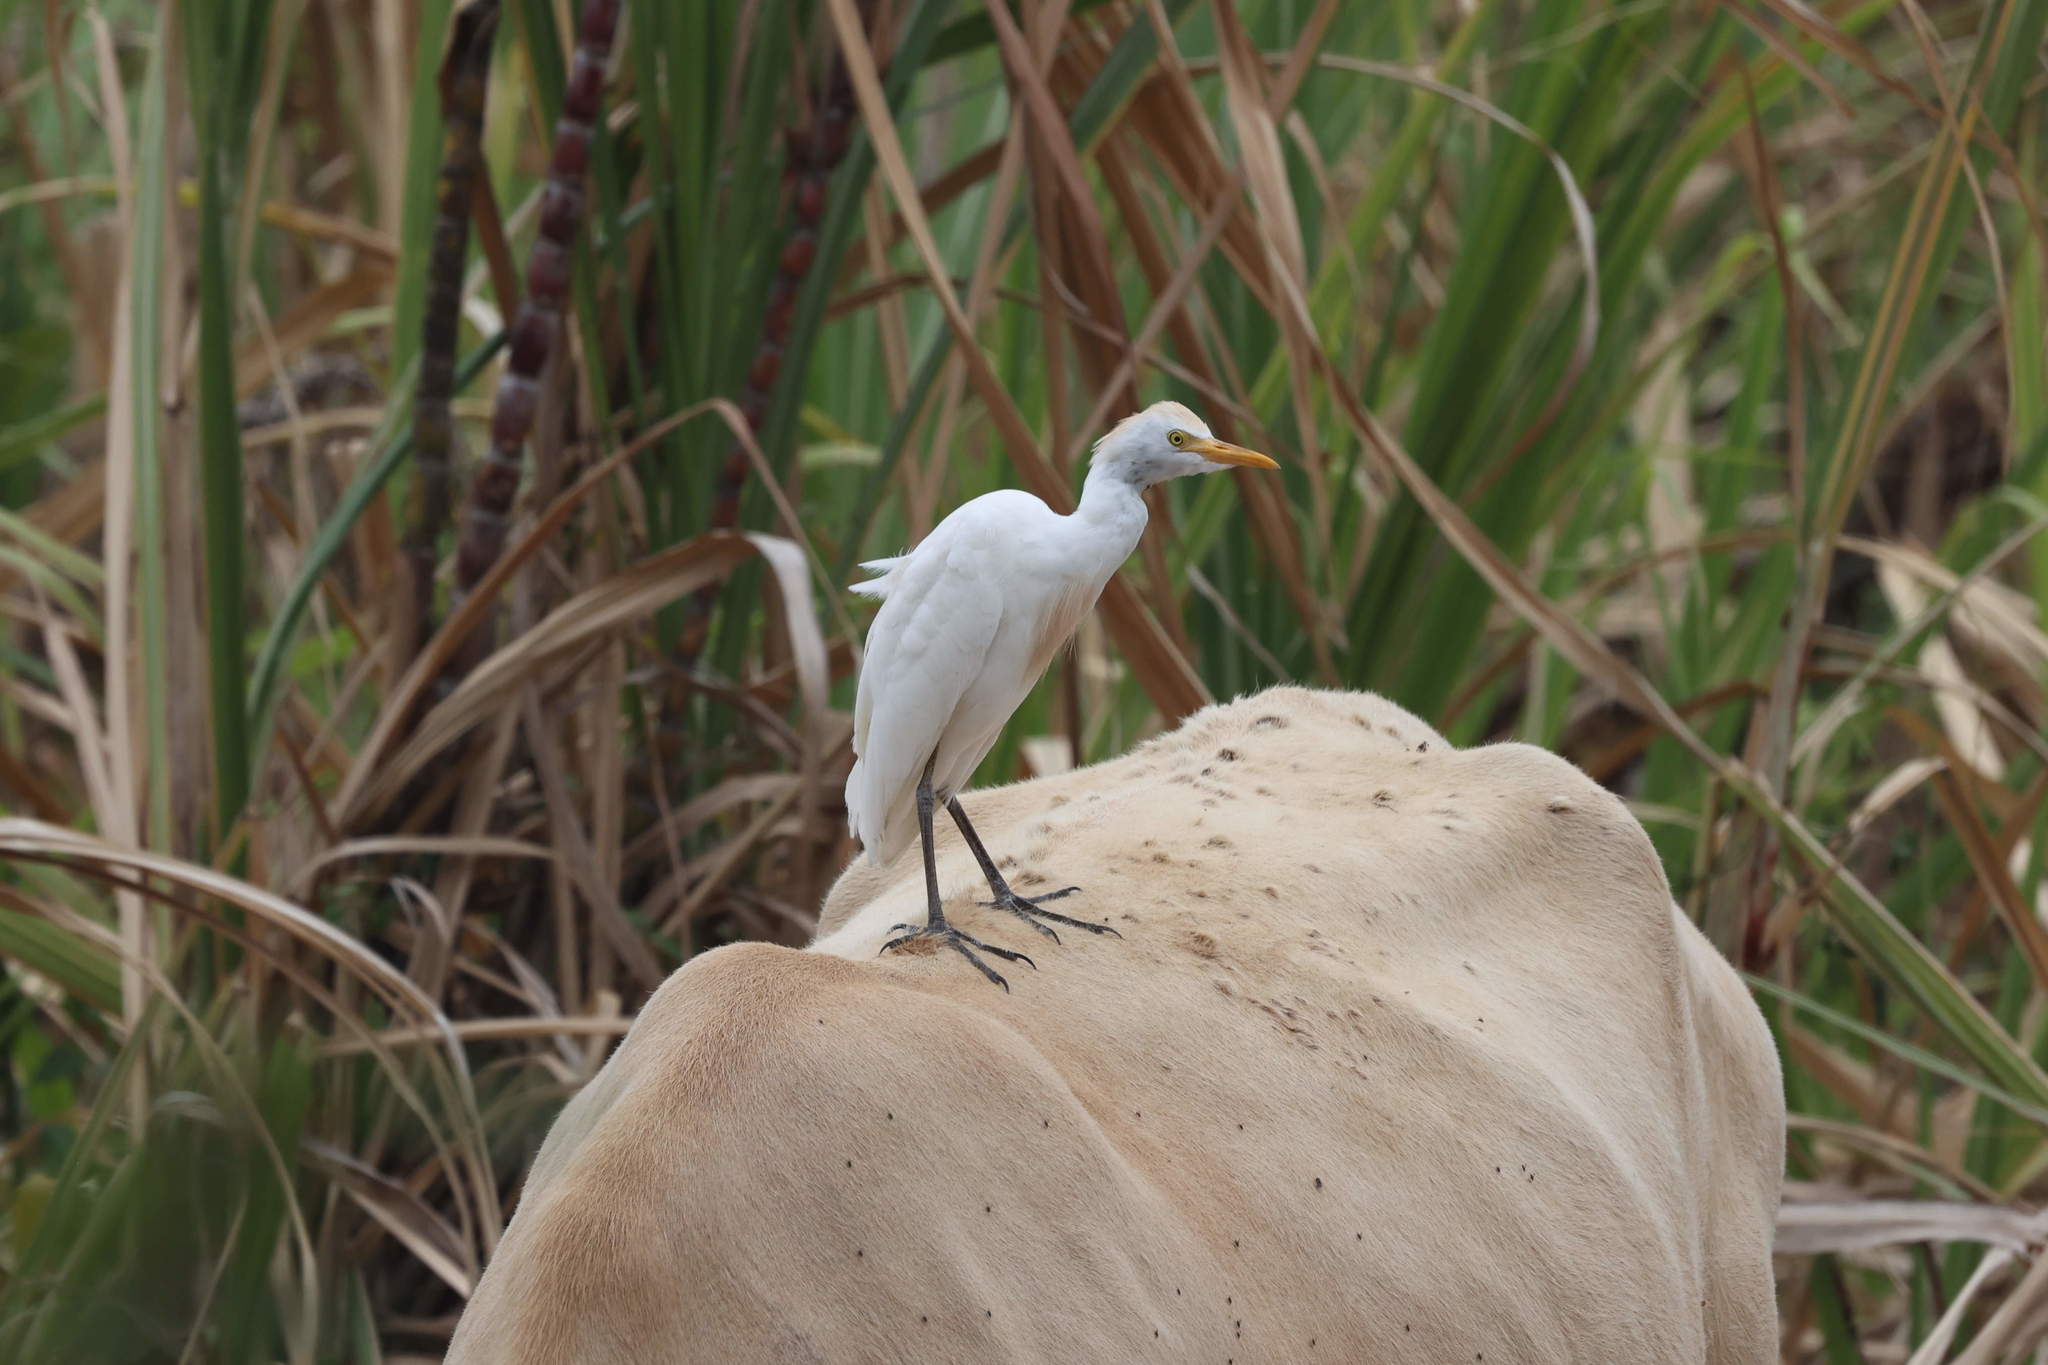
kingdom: Animalia
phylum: Chordata
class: Aves
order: Pelecaniformes
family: Ardeidae
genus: Bubulcus
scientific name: Bubulcus ibis
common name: Cattle egret
